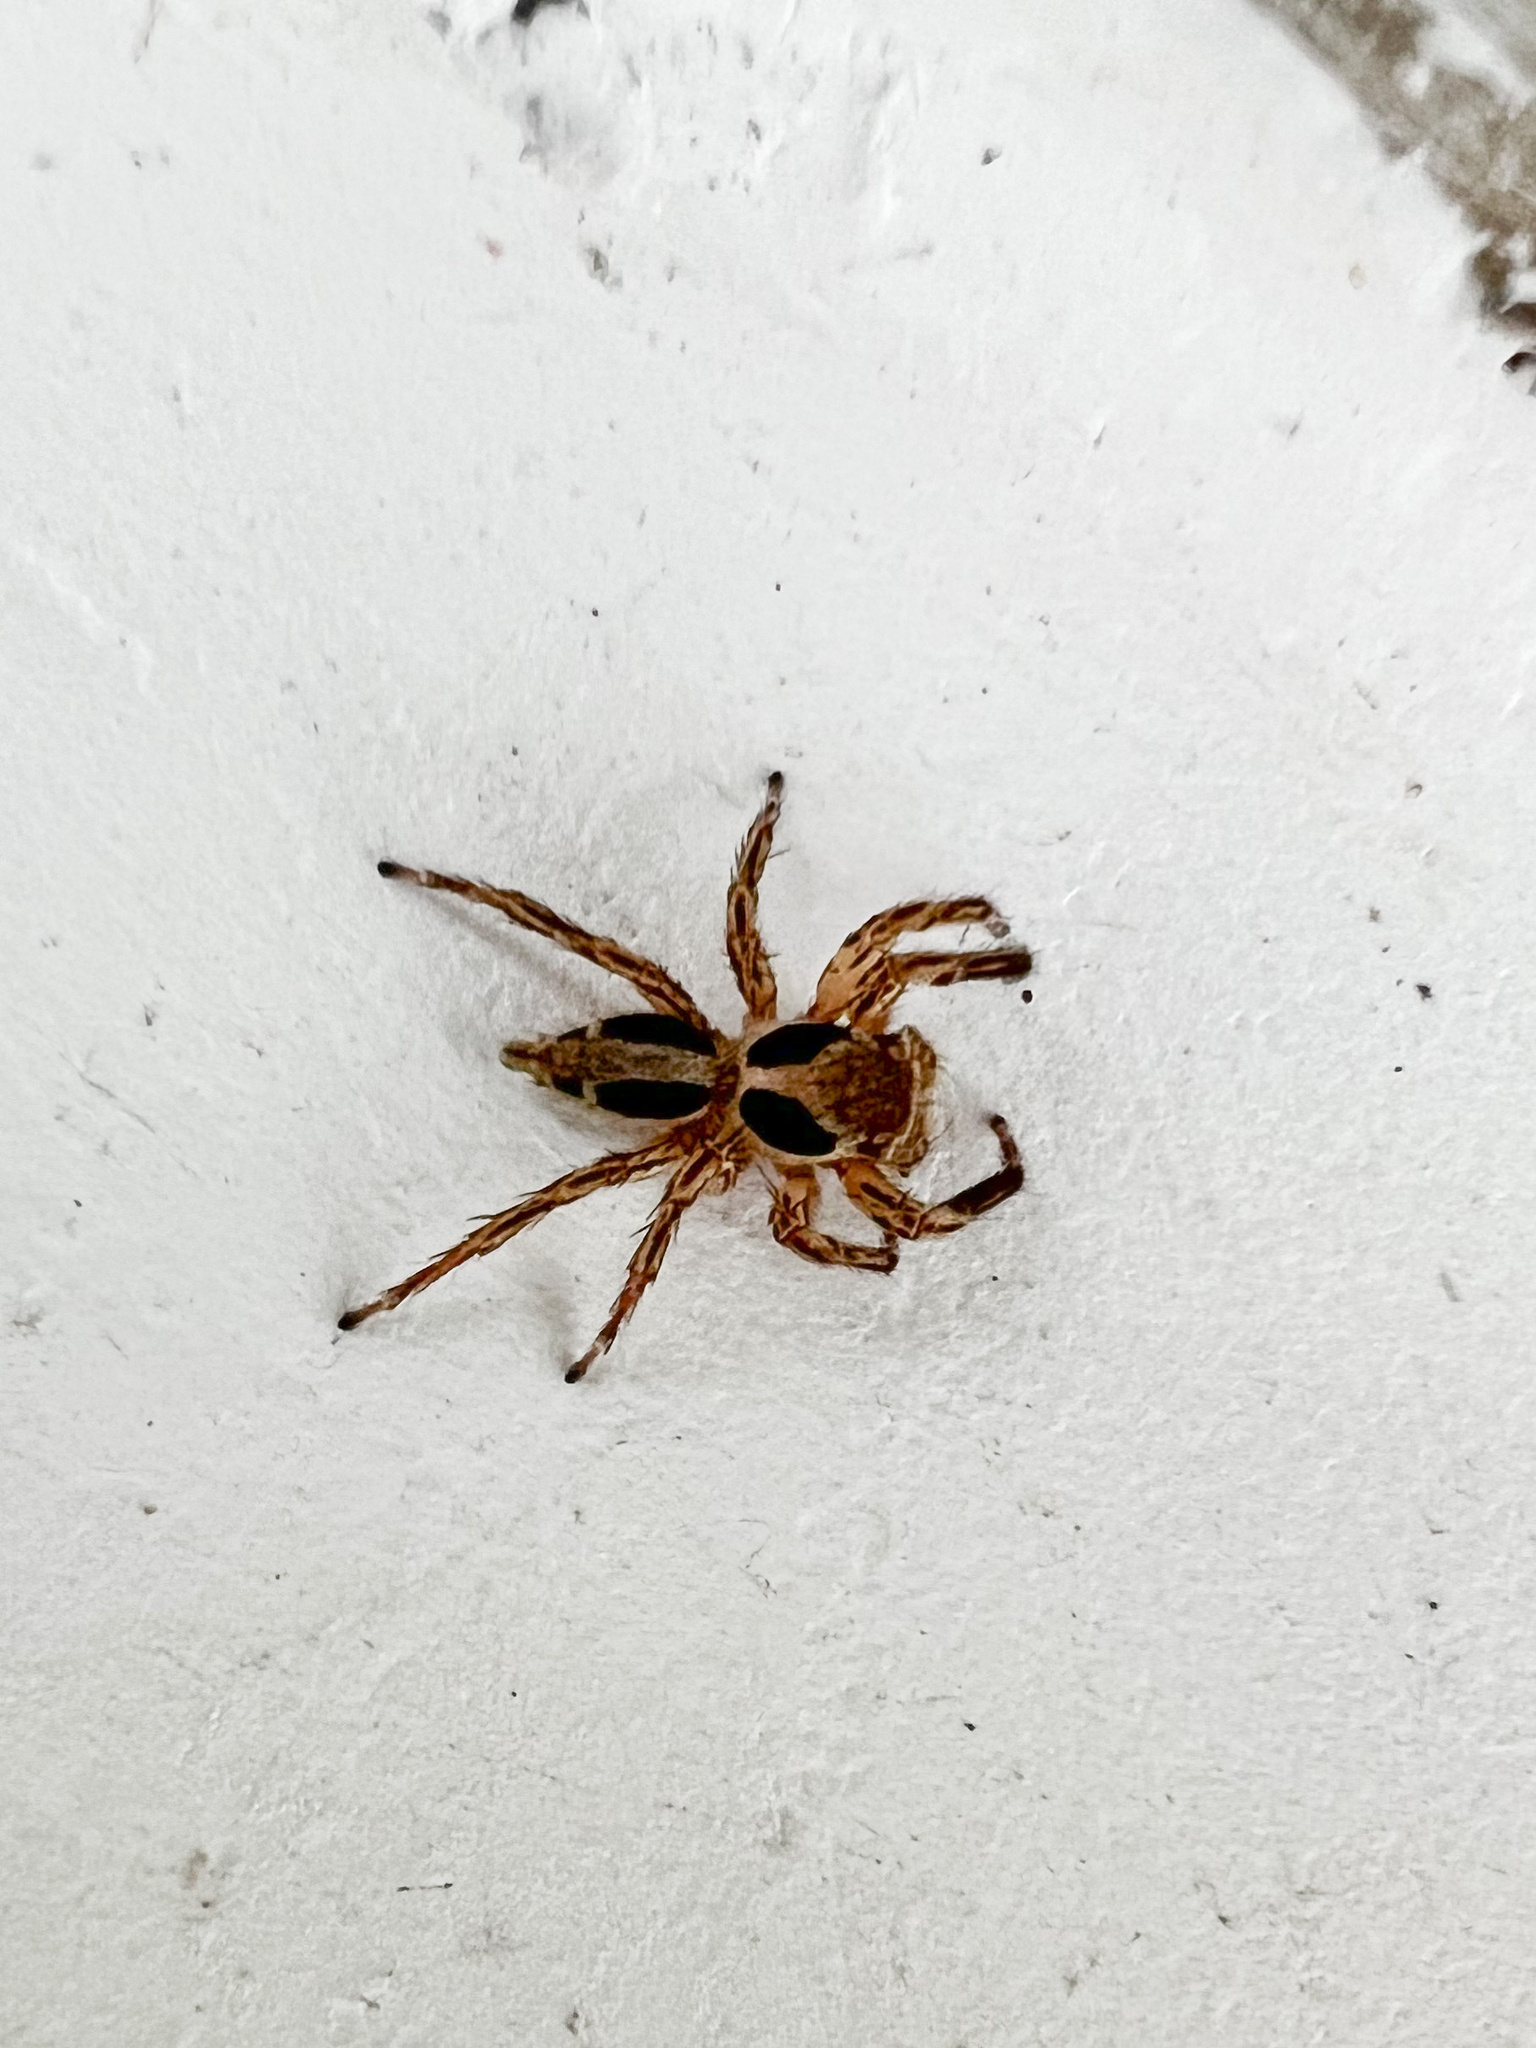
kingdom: Animalia
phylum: Arthropoda
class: Arachnida
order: Araneae
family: Salticidae
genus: Plexippus
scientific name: Plexippus petersi
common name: Jumping spider
